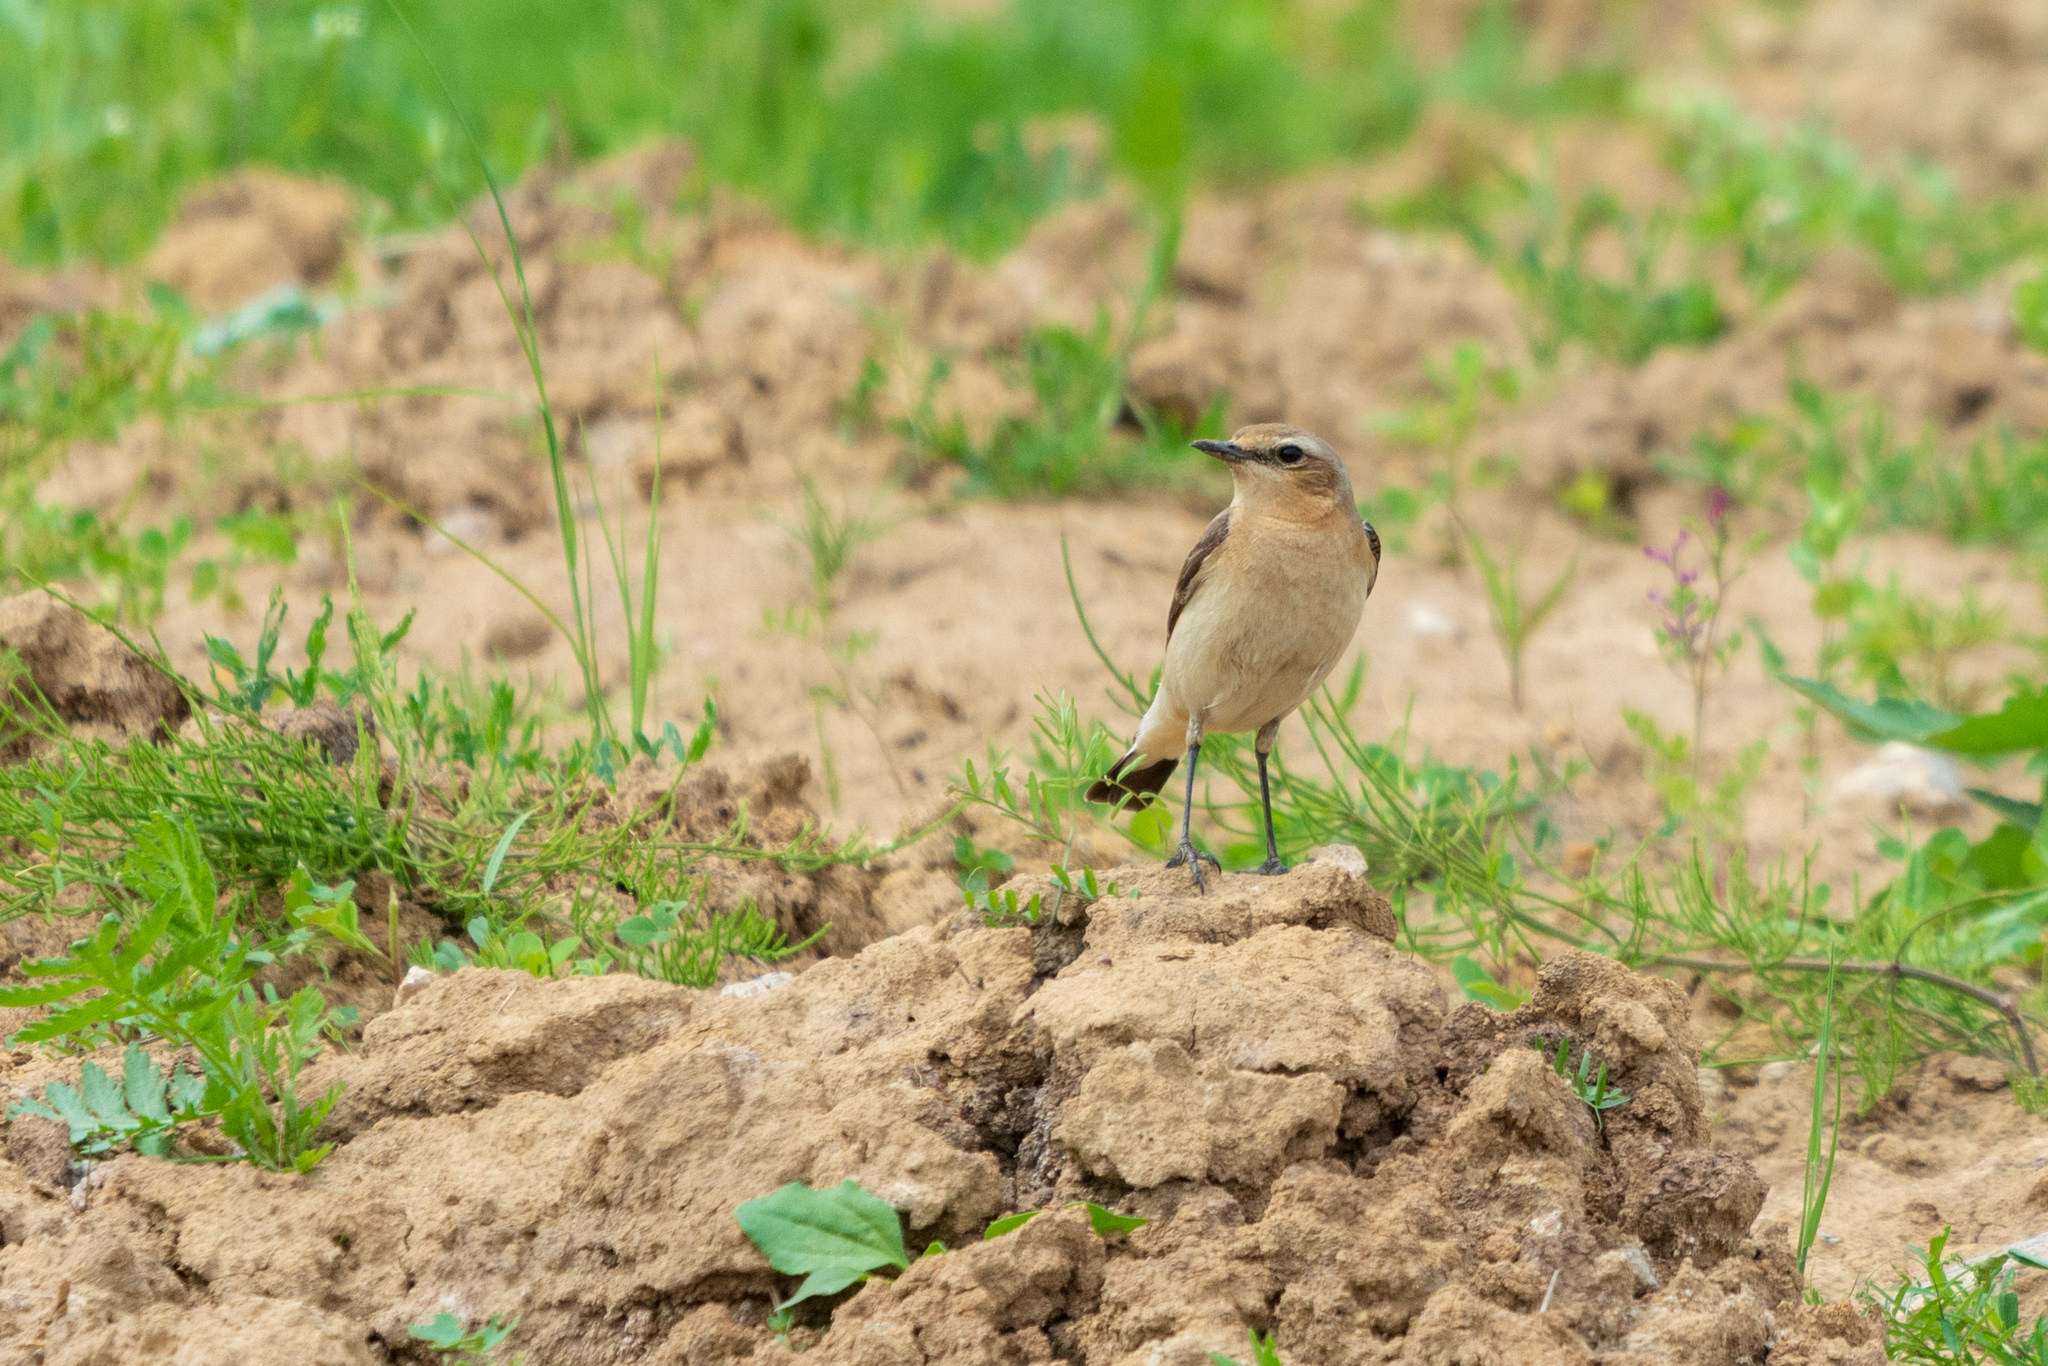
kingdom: Animalia
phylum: Chordata
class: Aves
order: Passeriformes
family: Muscicapidae
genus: Oenanthe
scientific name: Oenanthe oenanthe
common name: Northern wheatear
